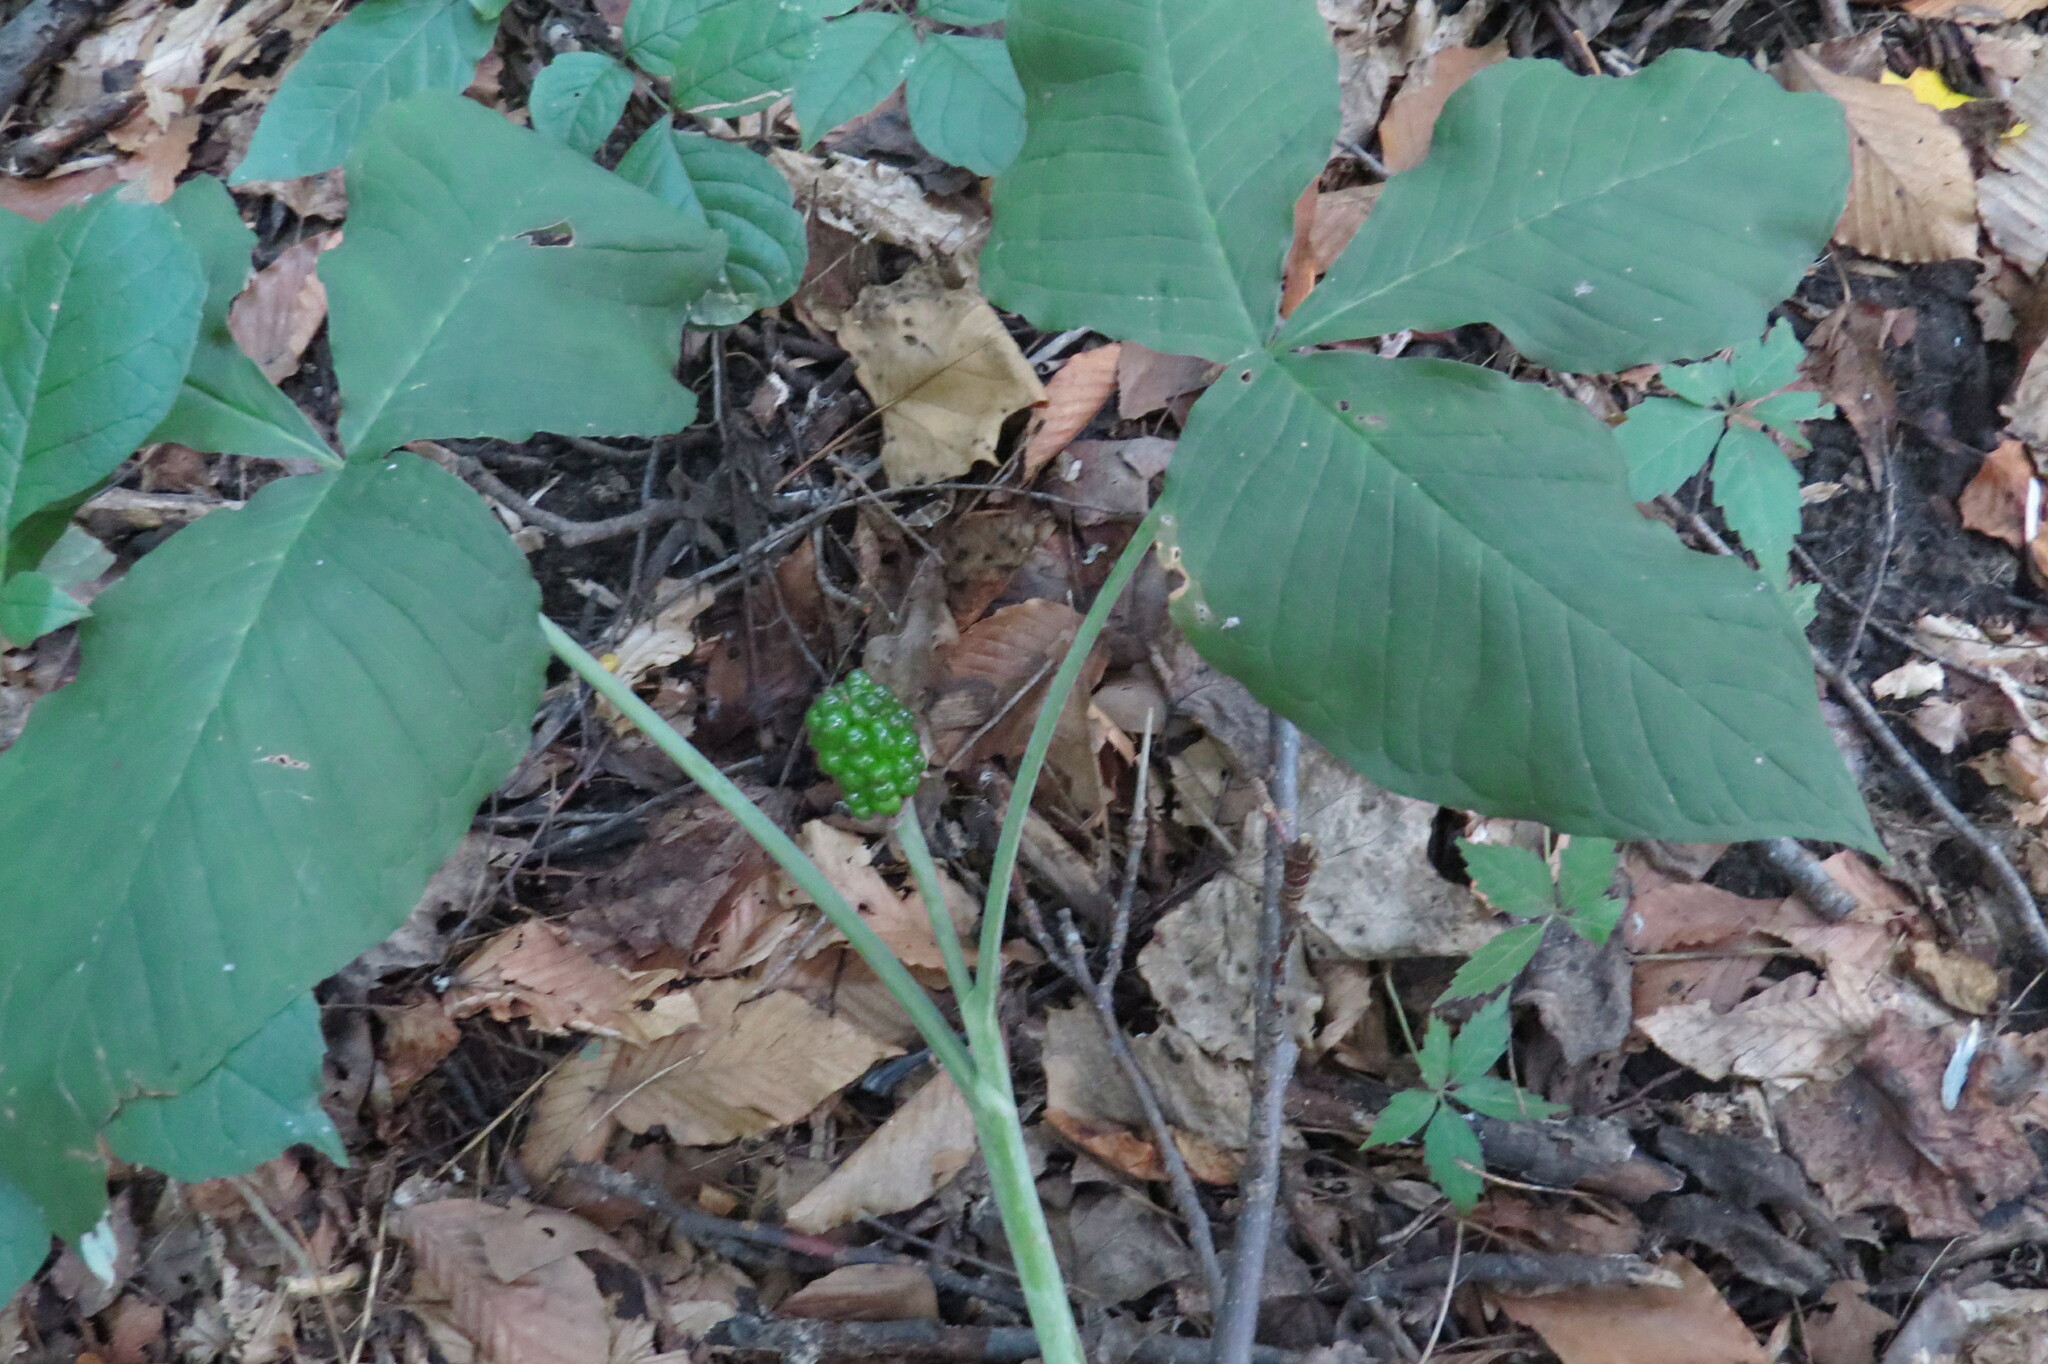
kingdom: Plantae
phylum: Tracheophyta
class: Liliopsida
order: Alismatales
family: Araceae
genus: Arisaema
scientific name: Arisaema triphyllum
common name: Jack-in-the-pulpit
